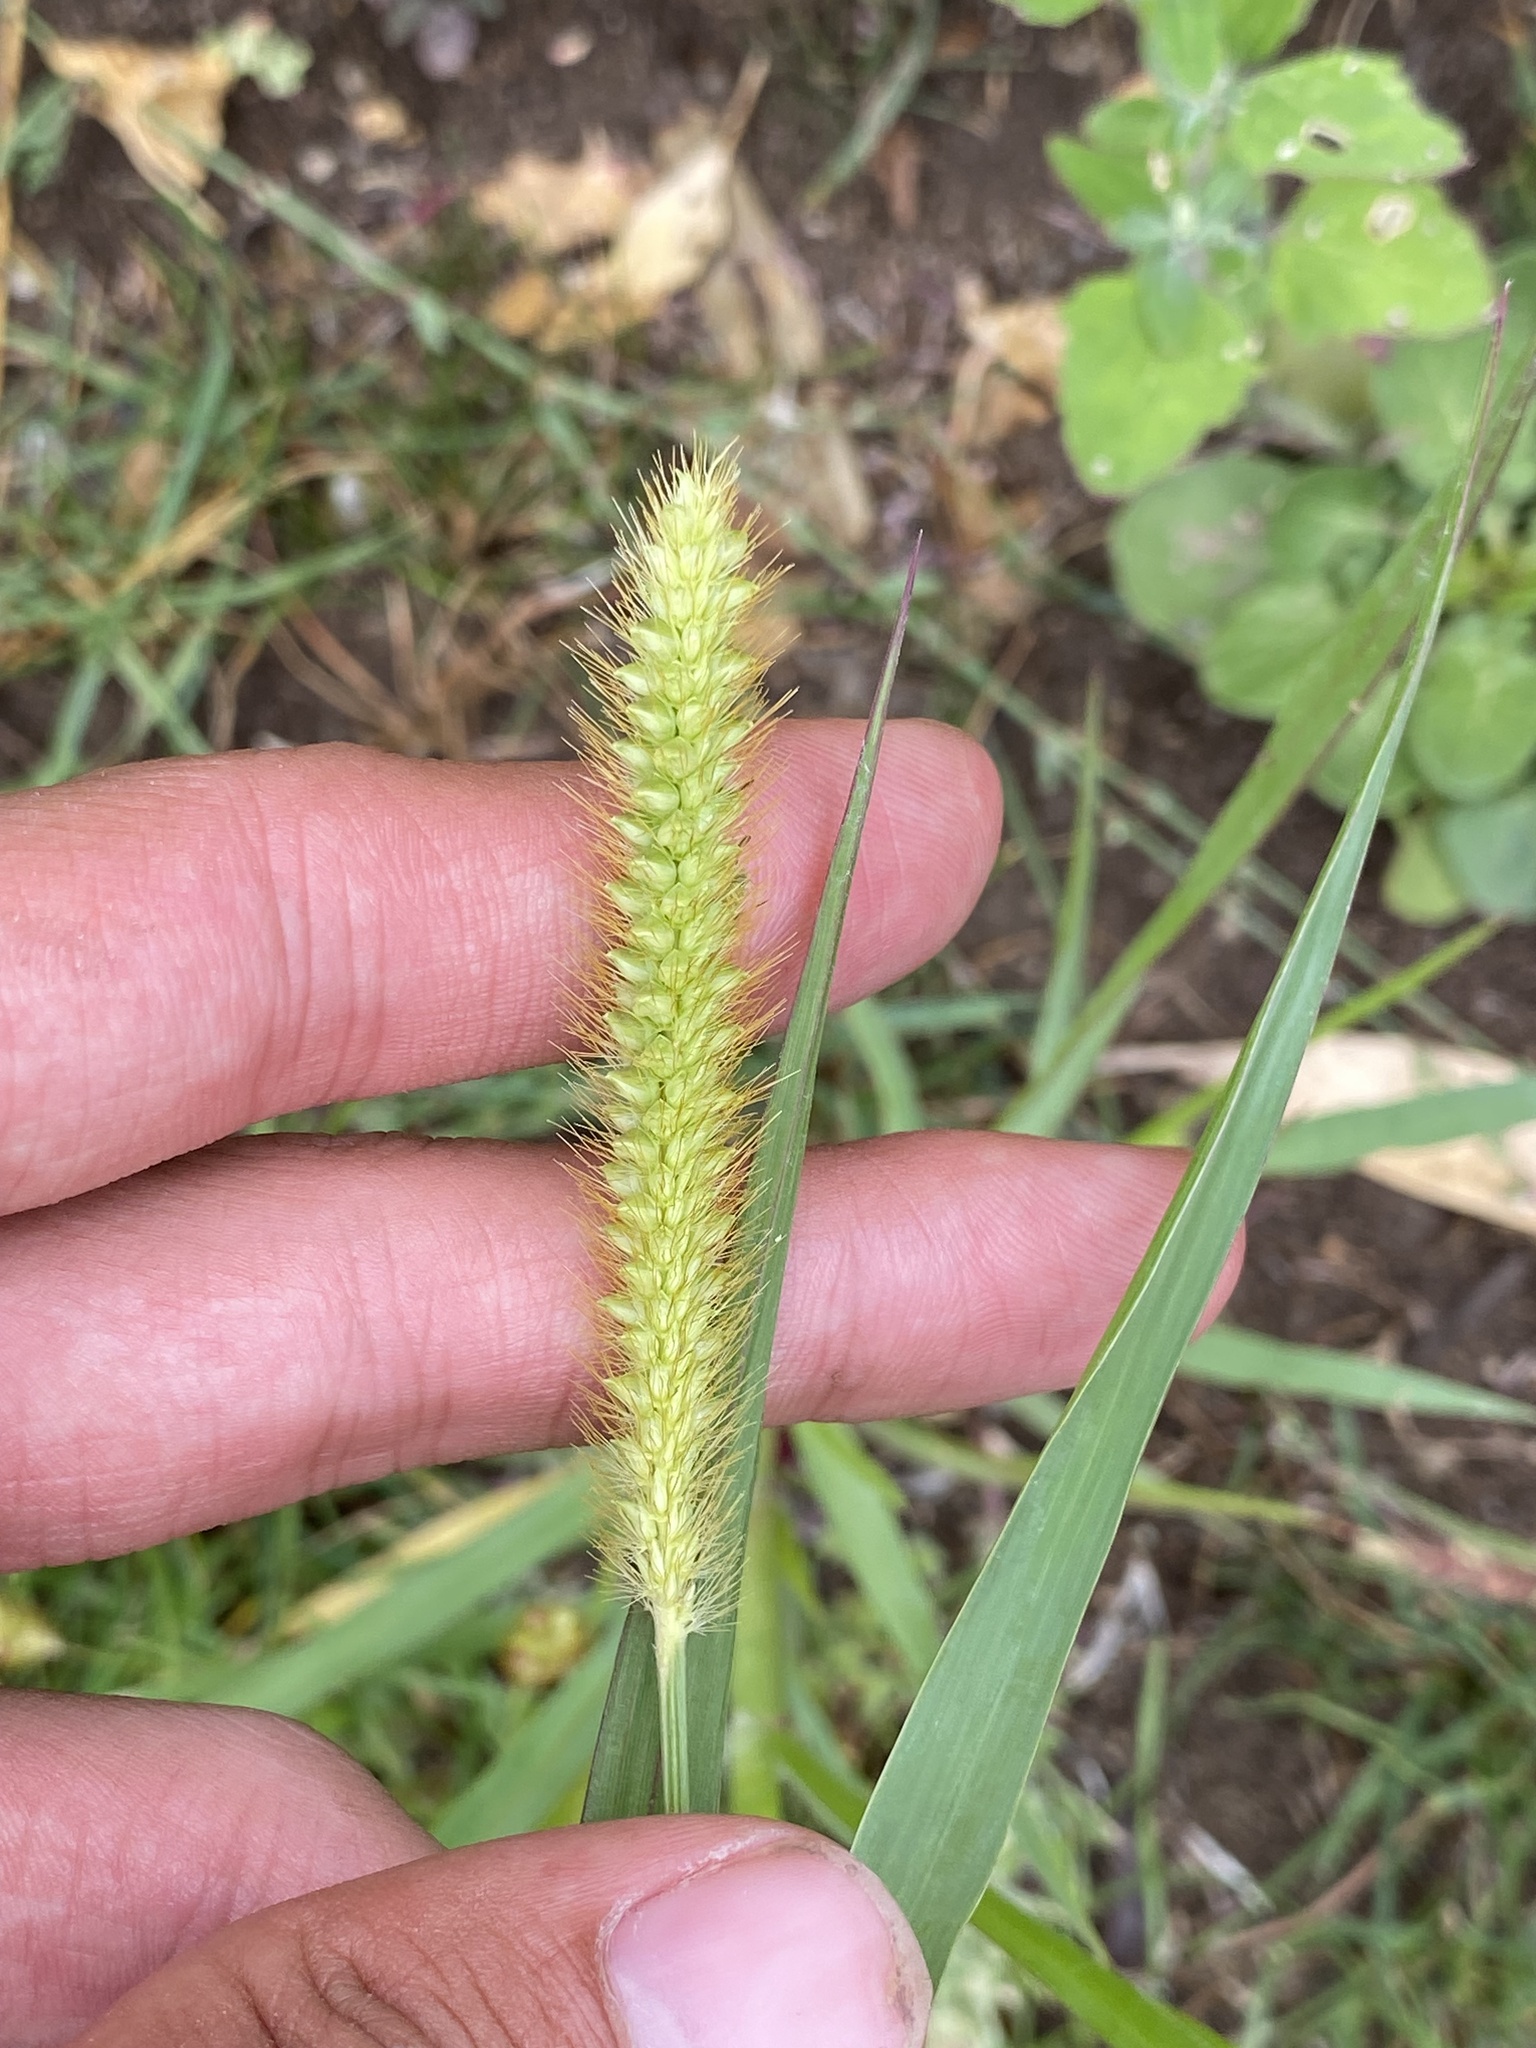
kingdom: Plantae
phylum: Tracheophyta
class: Liliopsida
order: Poales
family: Poaceae
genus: Setaria
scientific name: Setaria pumila
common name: Yellow bristle-grass
